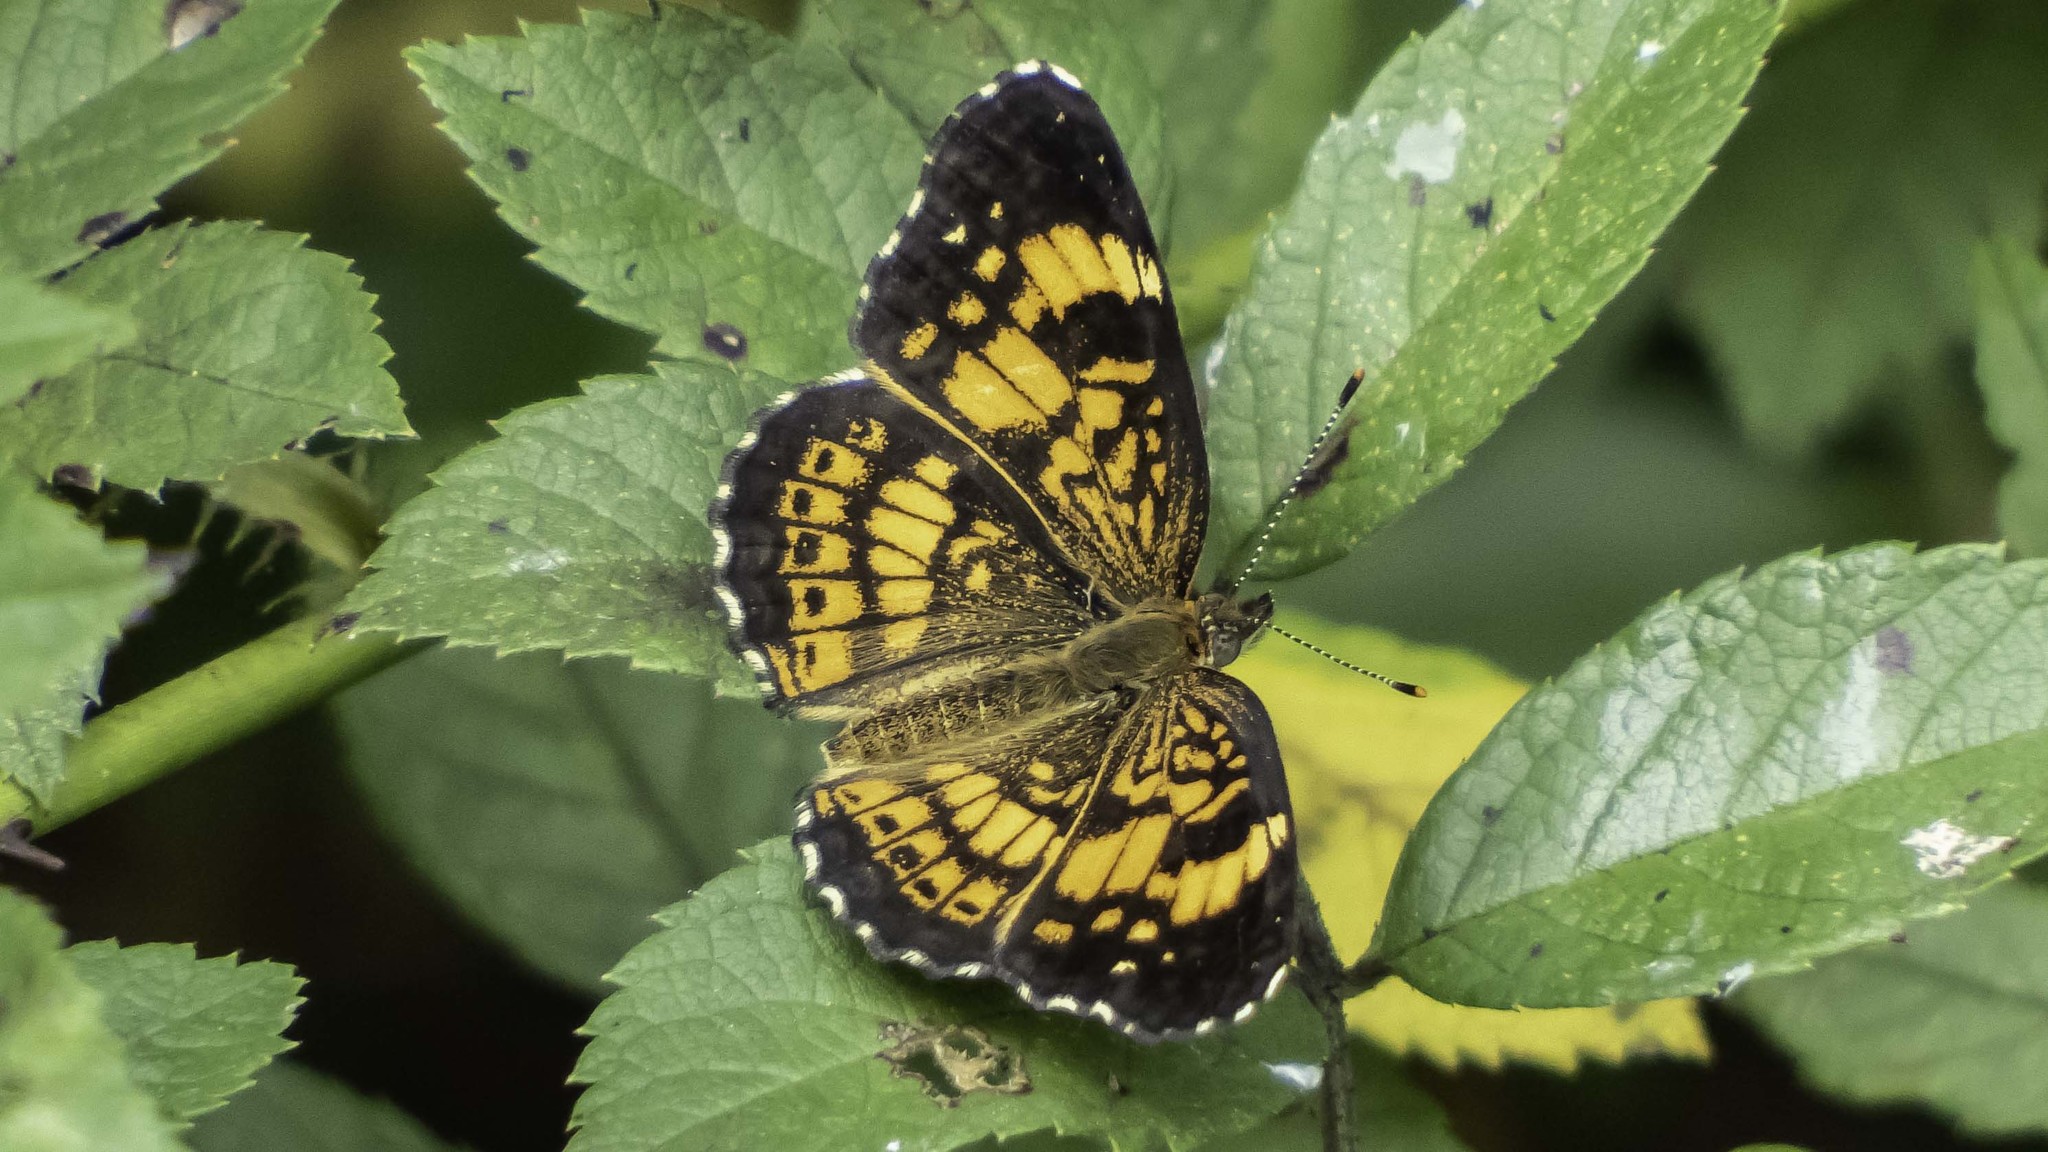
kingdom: Animalia
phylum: Arthropoda
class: Insecta
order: Lepidoptera
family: Nymphalidae
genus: Chlosyne
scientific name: Chlosyne nycteis
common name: Silvery checkerspot
